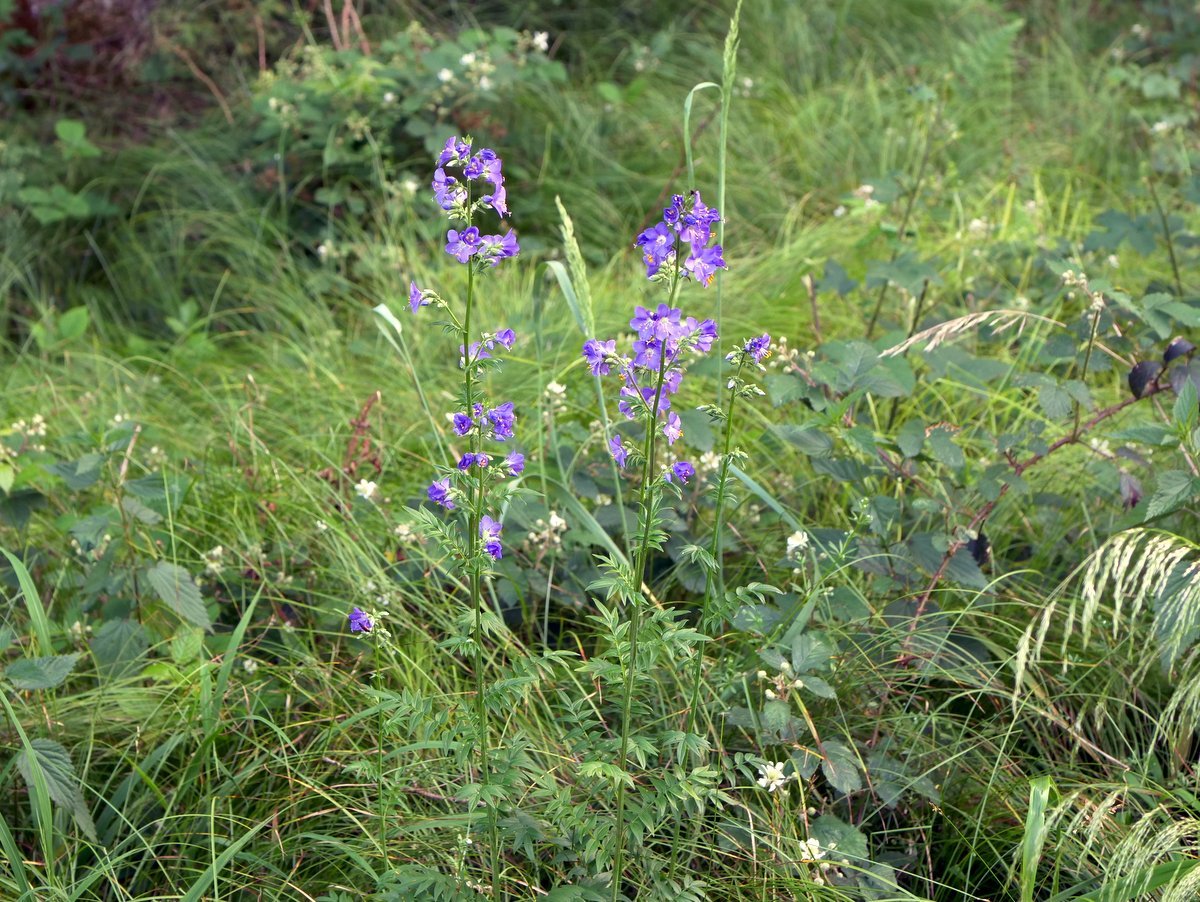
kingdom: Plantae
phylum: Tracheophyta
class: Magnoliopsida
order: Ericales
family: Polemoniaceae
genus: Polemonium
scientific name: Polemonium caeruleum
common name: Jacob's-ladder
